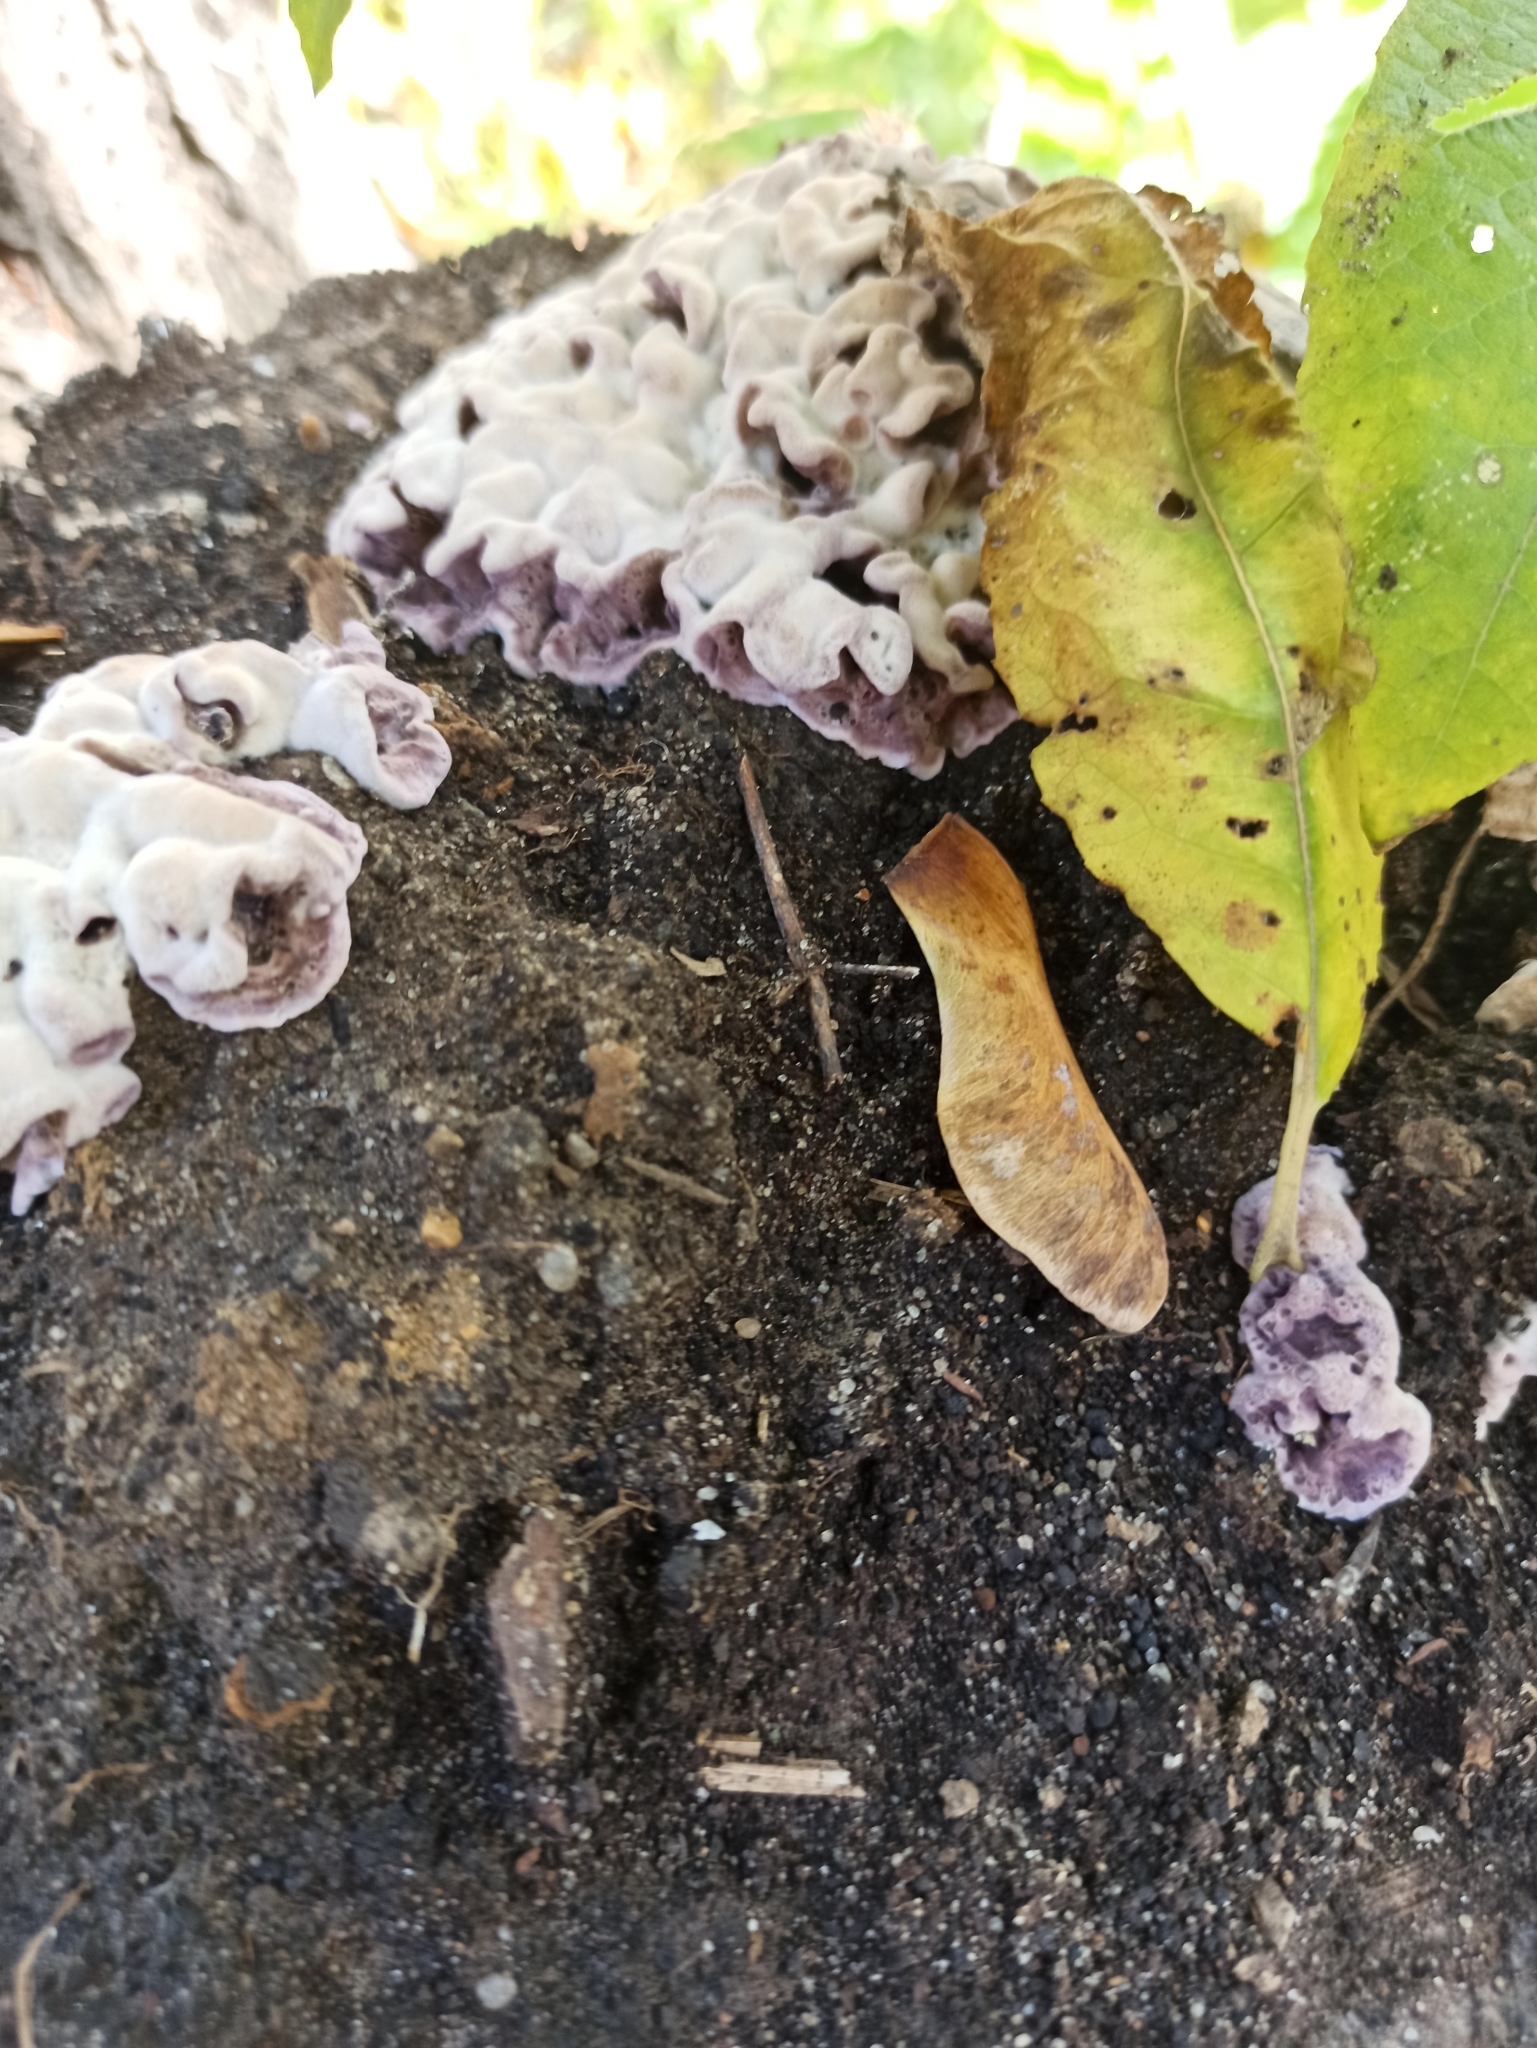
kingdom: Fungi
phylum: Basidiomycota
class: Agaricomycetes
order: Agaricales
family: Cyphellaceae
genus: Chondrostereum
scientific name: Chondrostereum purpureum
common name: Silver leaf disease
